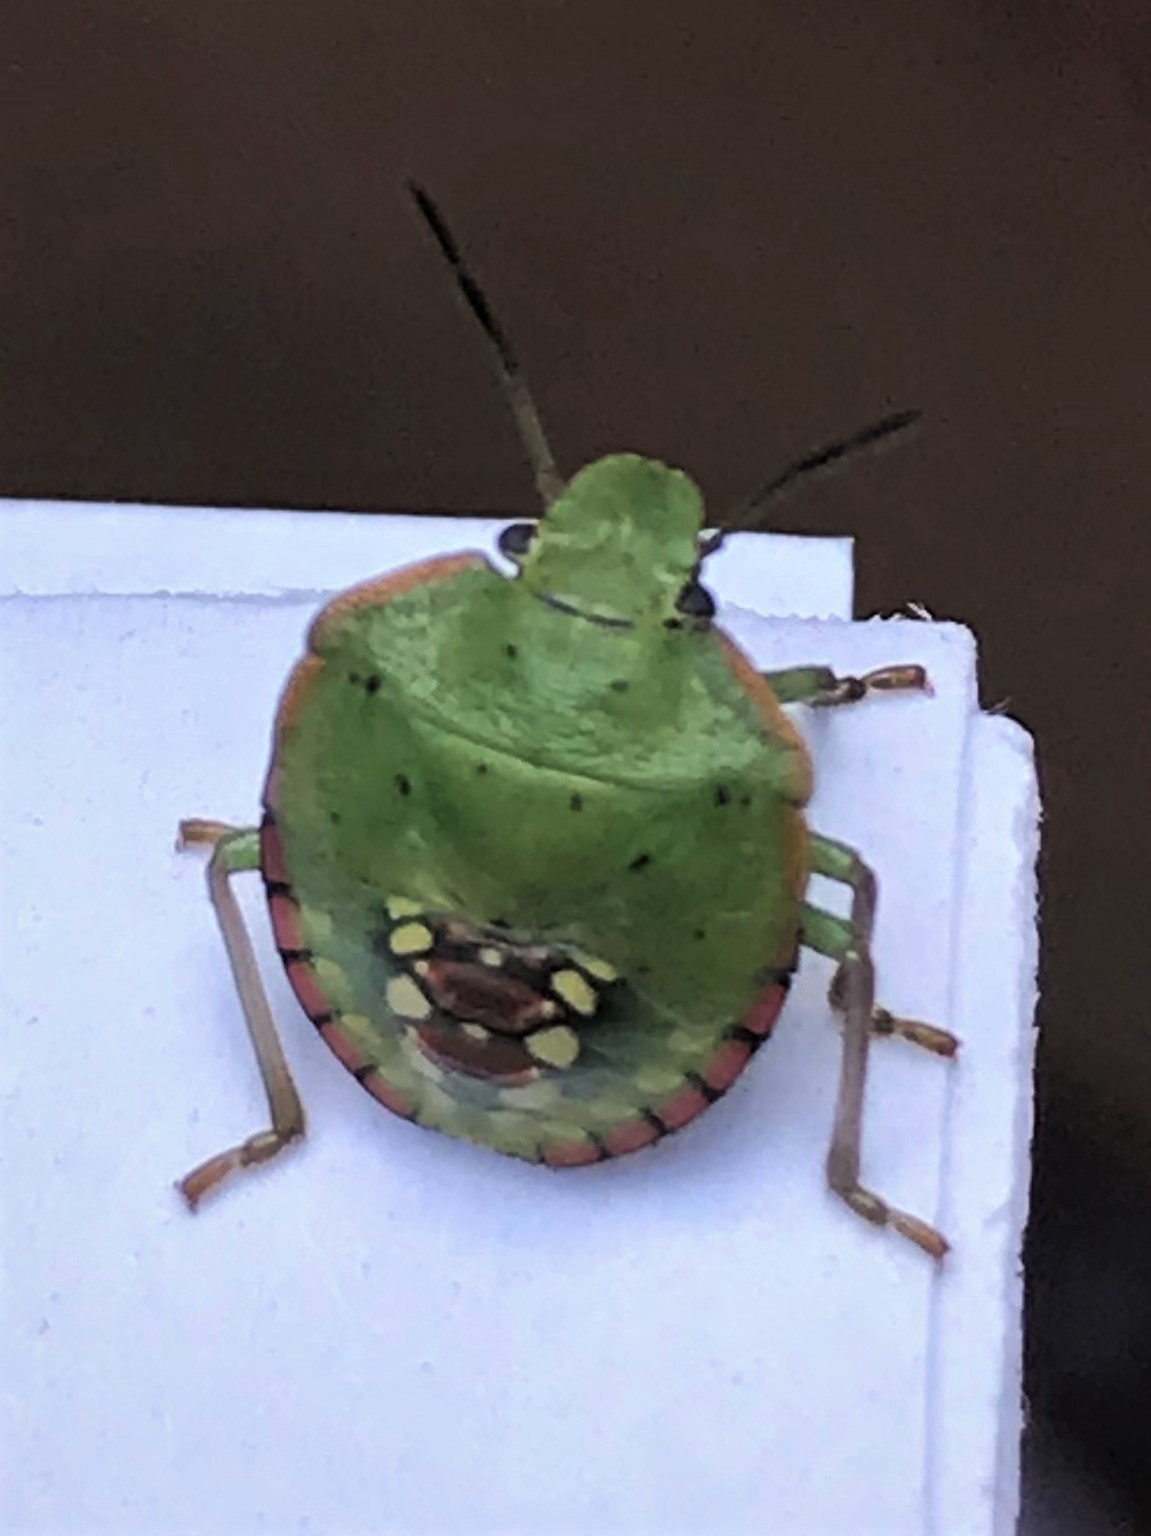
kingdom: Animalia
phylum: Arthropoda
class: Insecta
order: Hemiptera
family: Pentatomidae
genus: Nezara
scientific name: Nezara viridula
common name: Southern green stink bug
